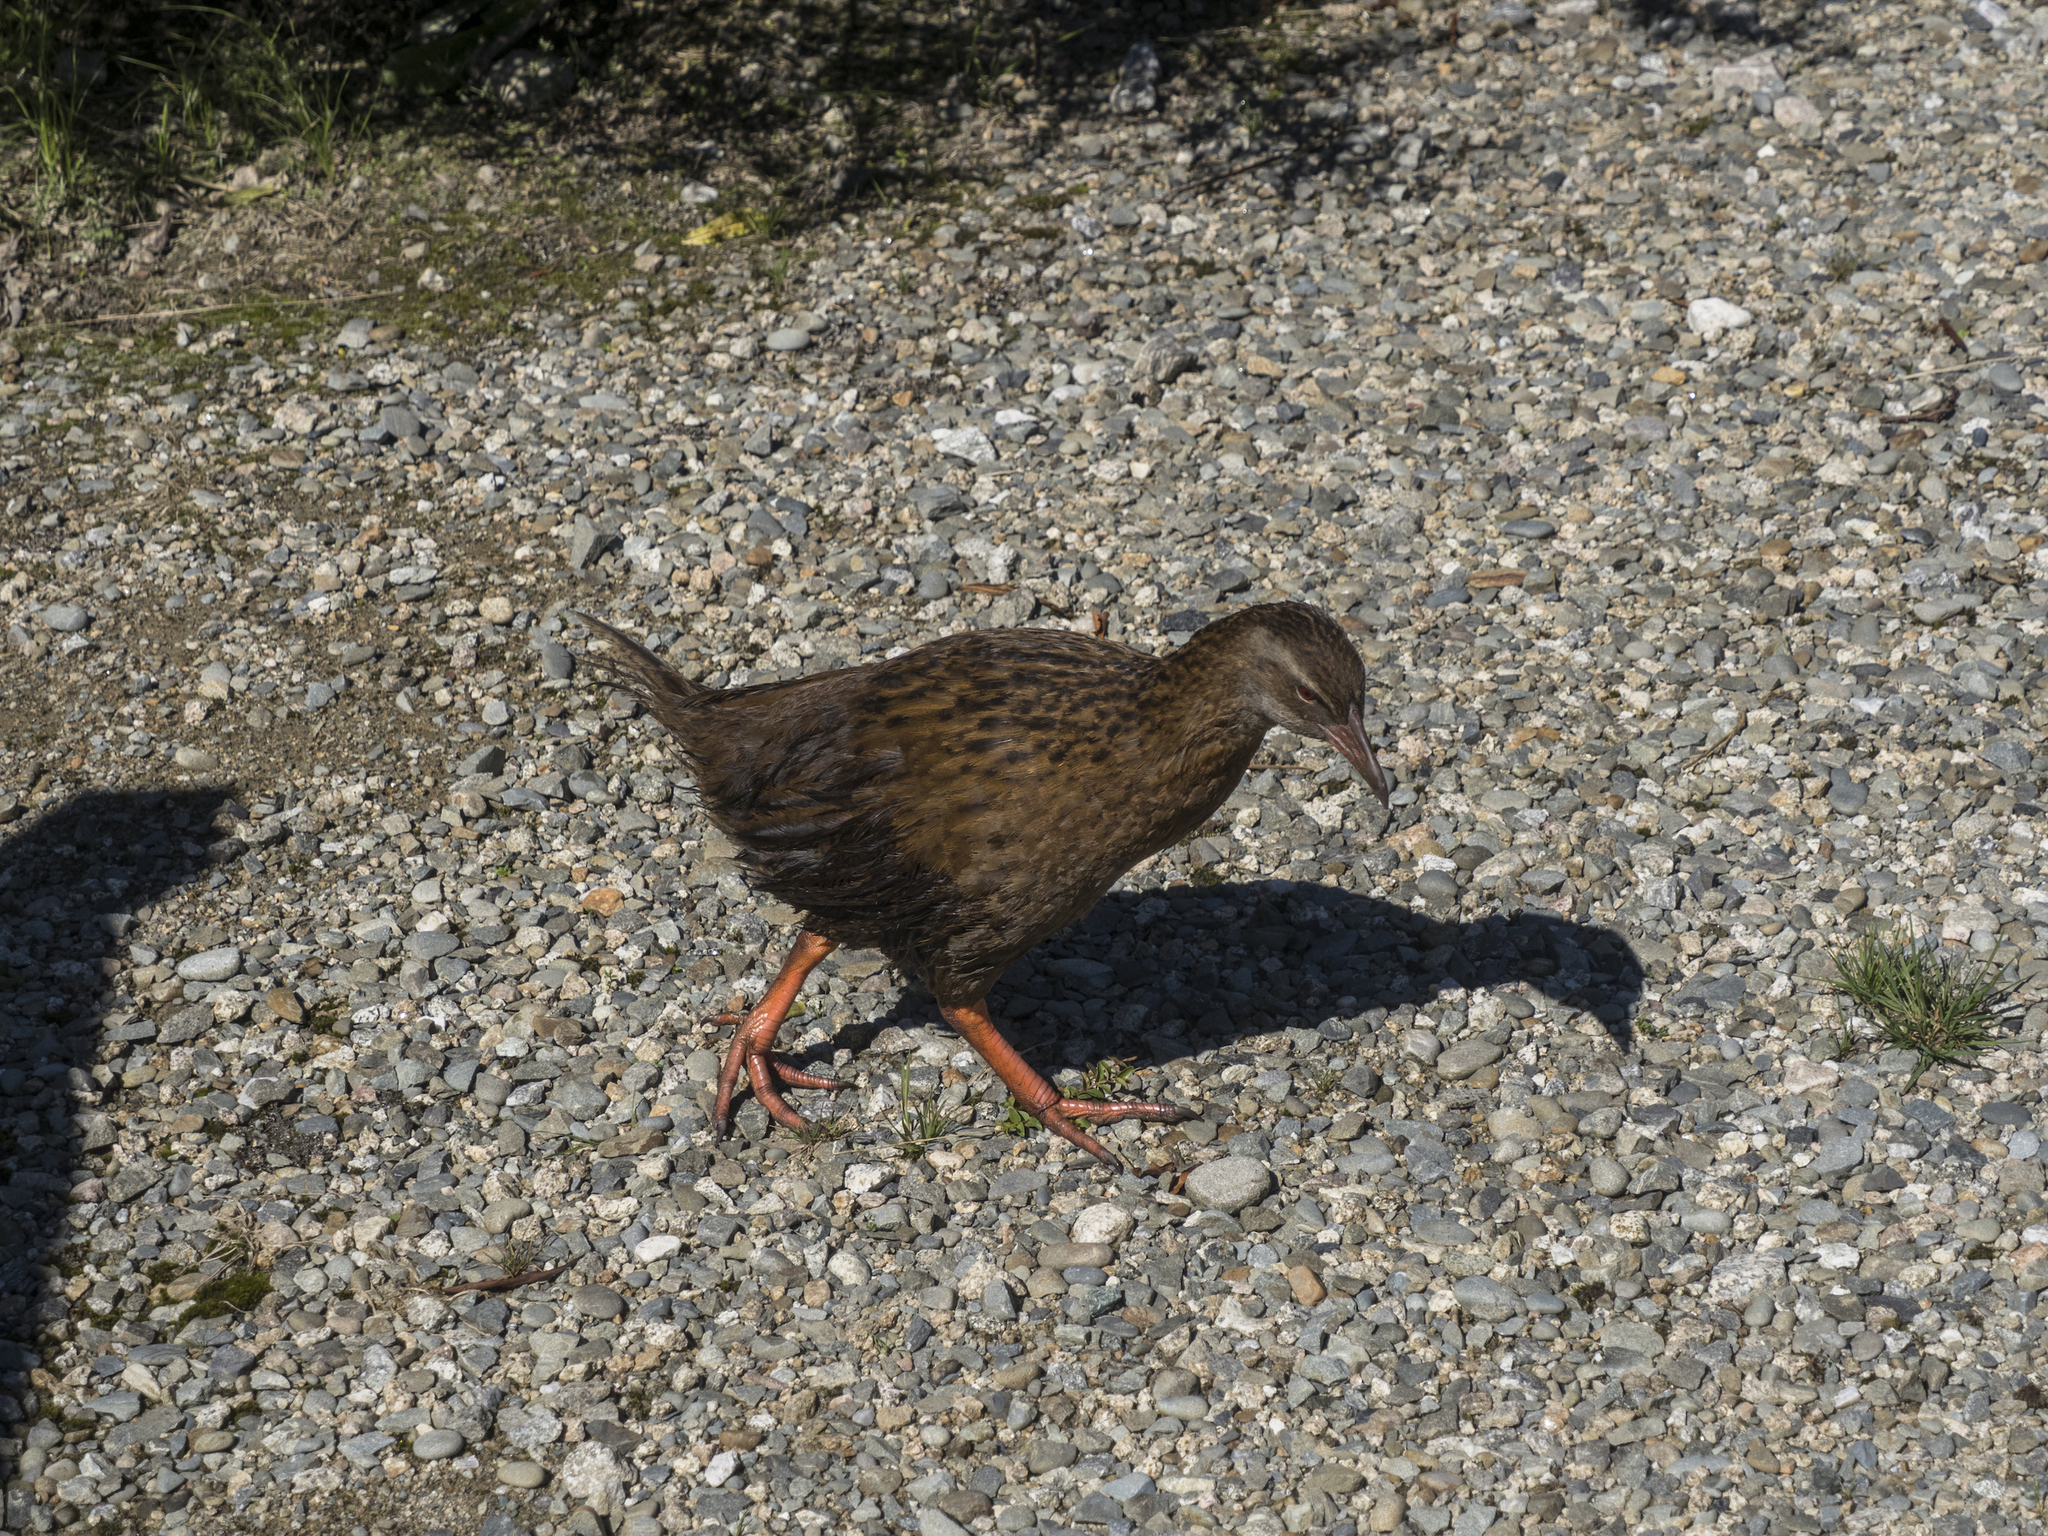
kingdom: Animalia
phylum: Chordata
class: Aves
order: Gruiformes
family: Rallidae
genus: Gallirallus
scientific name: Gallirallus australis
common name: Weka
